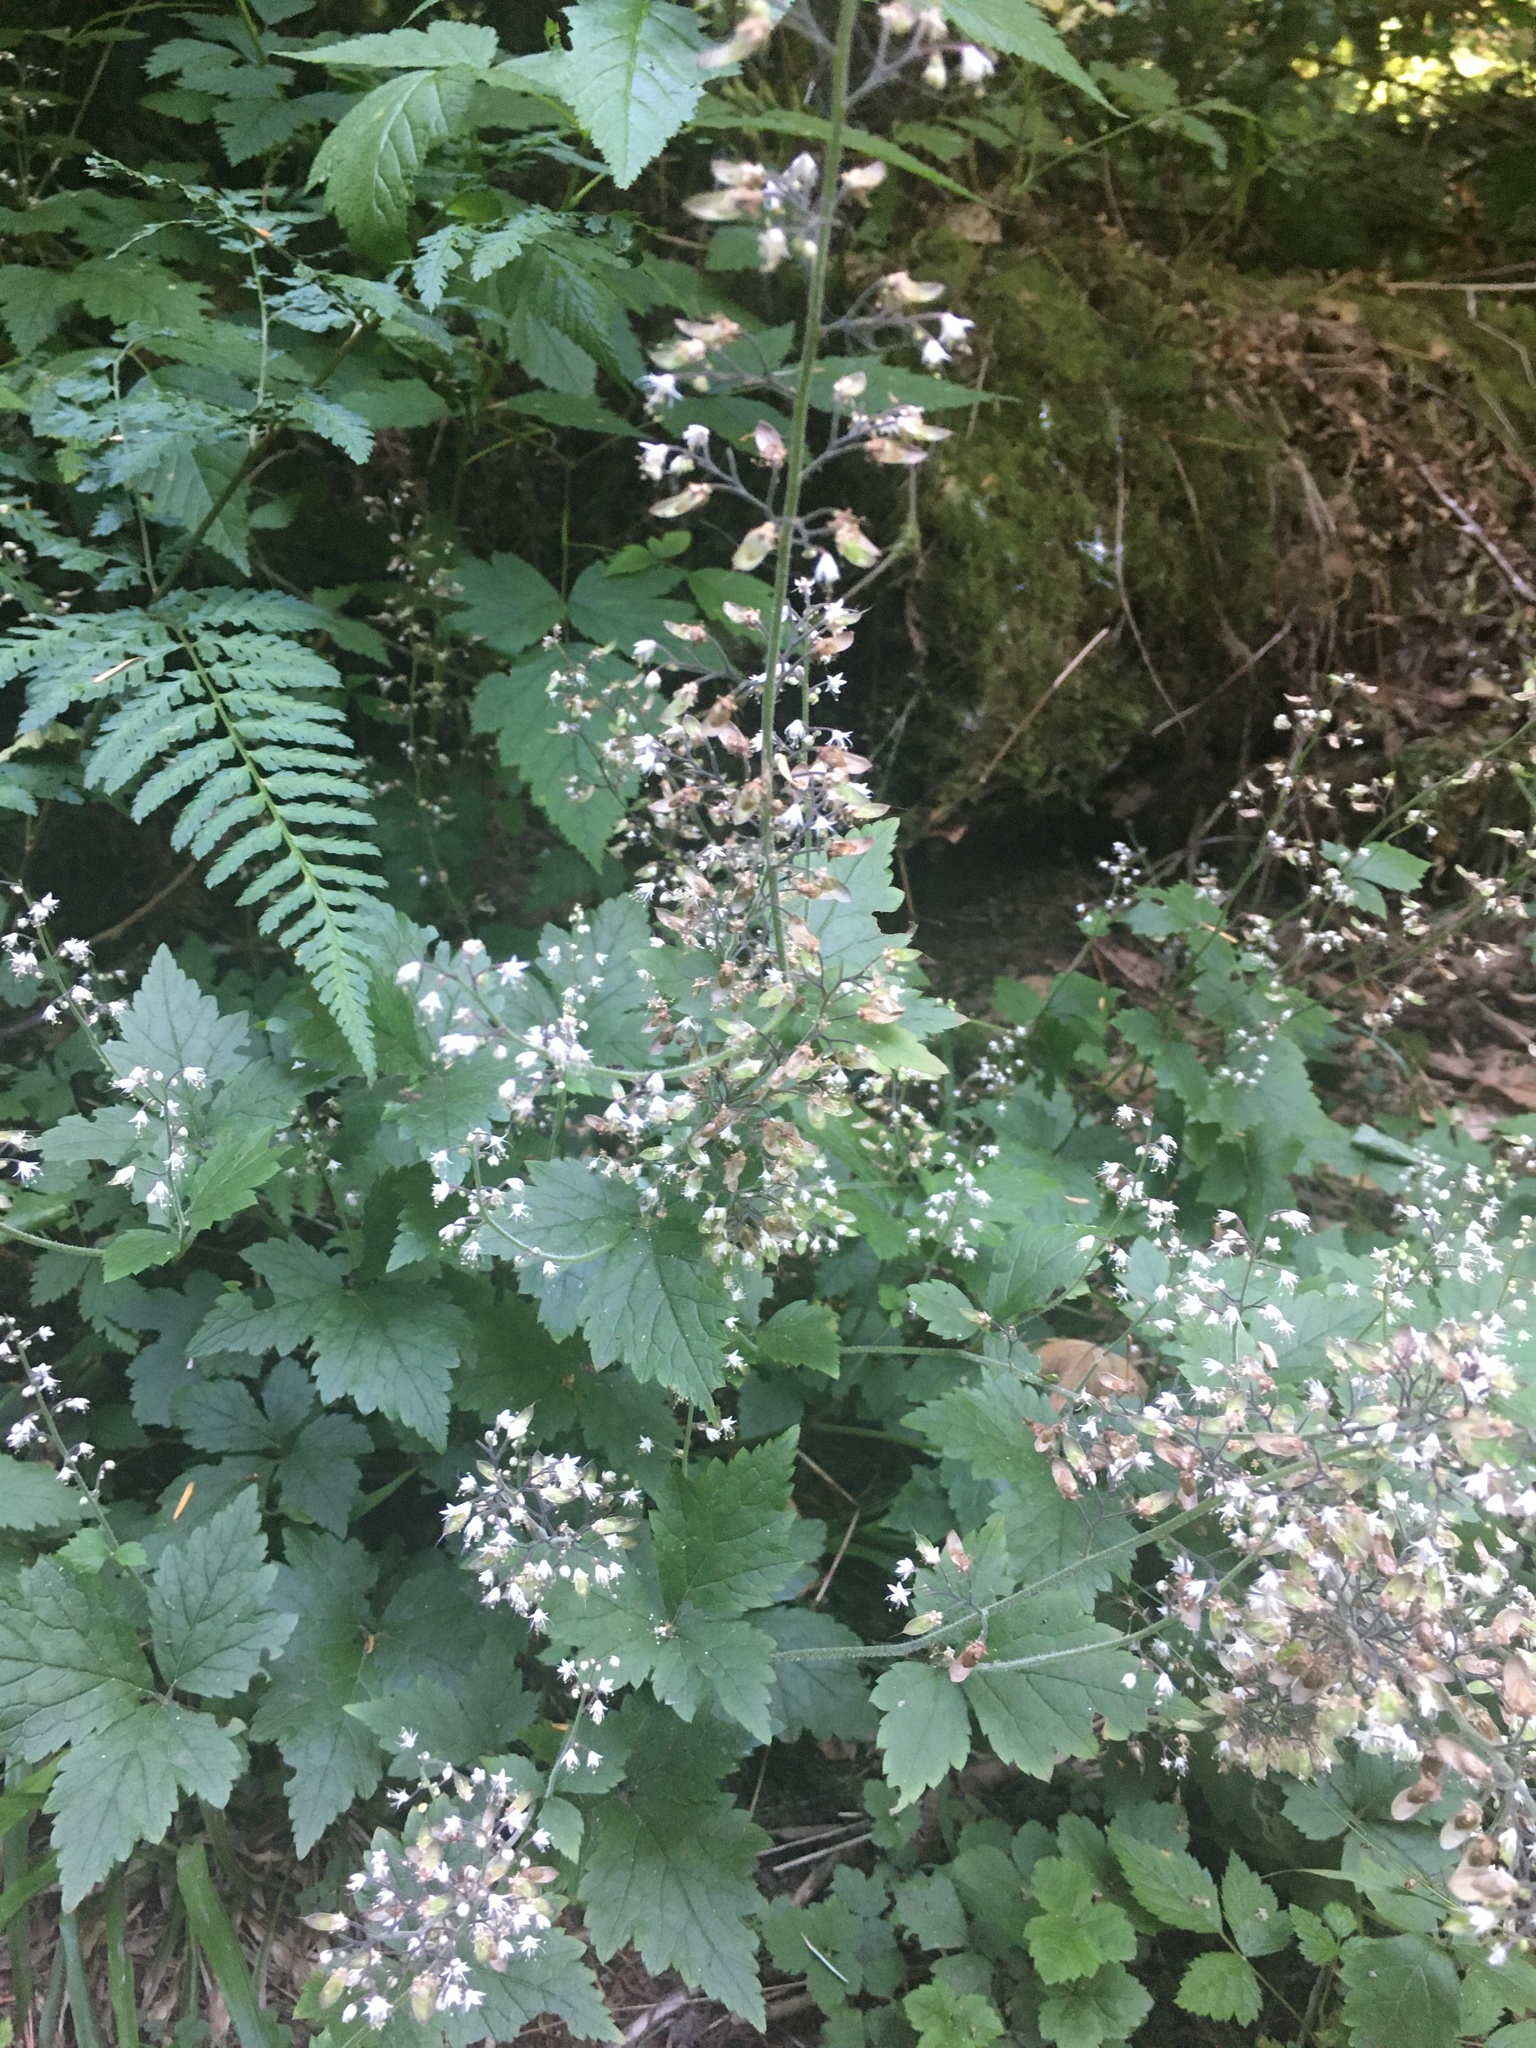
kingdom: Plantae
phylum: Tracheophyta
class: Magnoliopsida
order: Saxifragales
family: Saxifragaceae
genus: Tiarella
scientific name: Tiarella trifoliata
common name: Sugar-scoop
